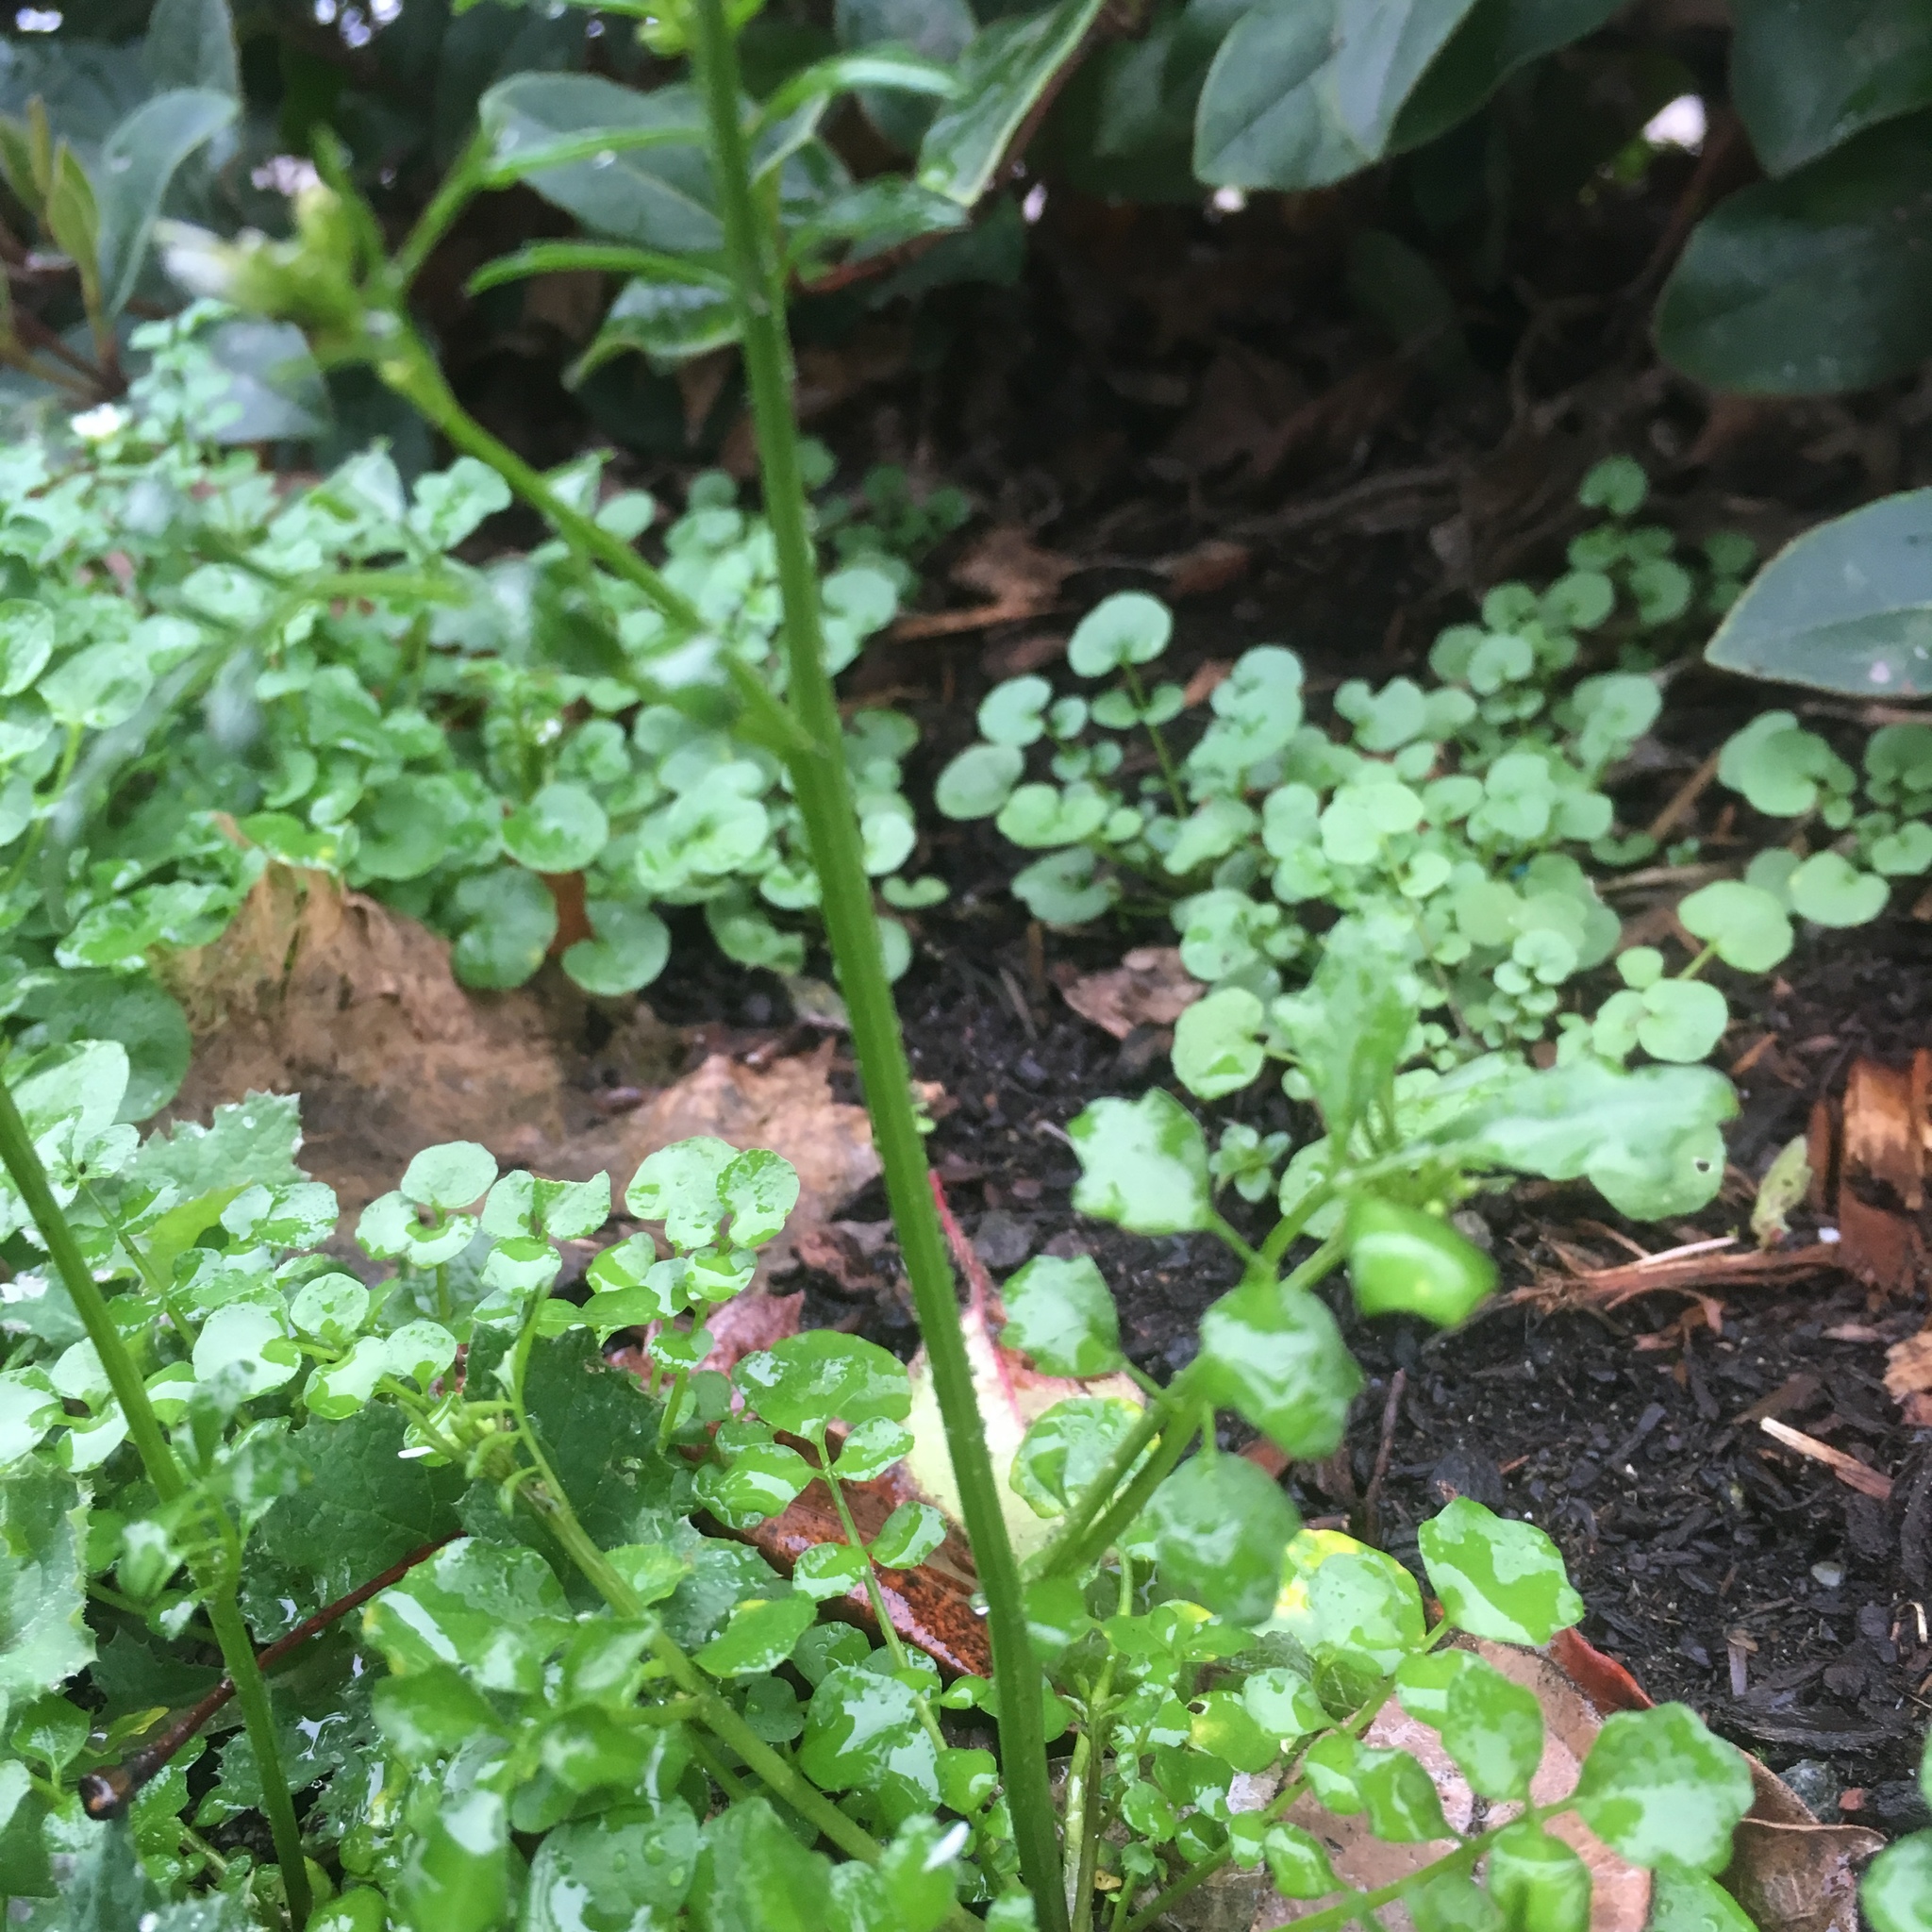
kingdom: Plantae
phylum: Tracheophyta
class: Magnoliopsida
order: Brassicales
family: Brassicaceae
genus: Cardamine
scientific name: Cardamine hirsuta
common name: Hairy bittercress
